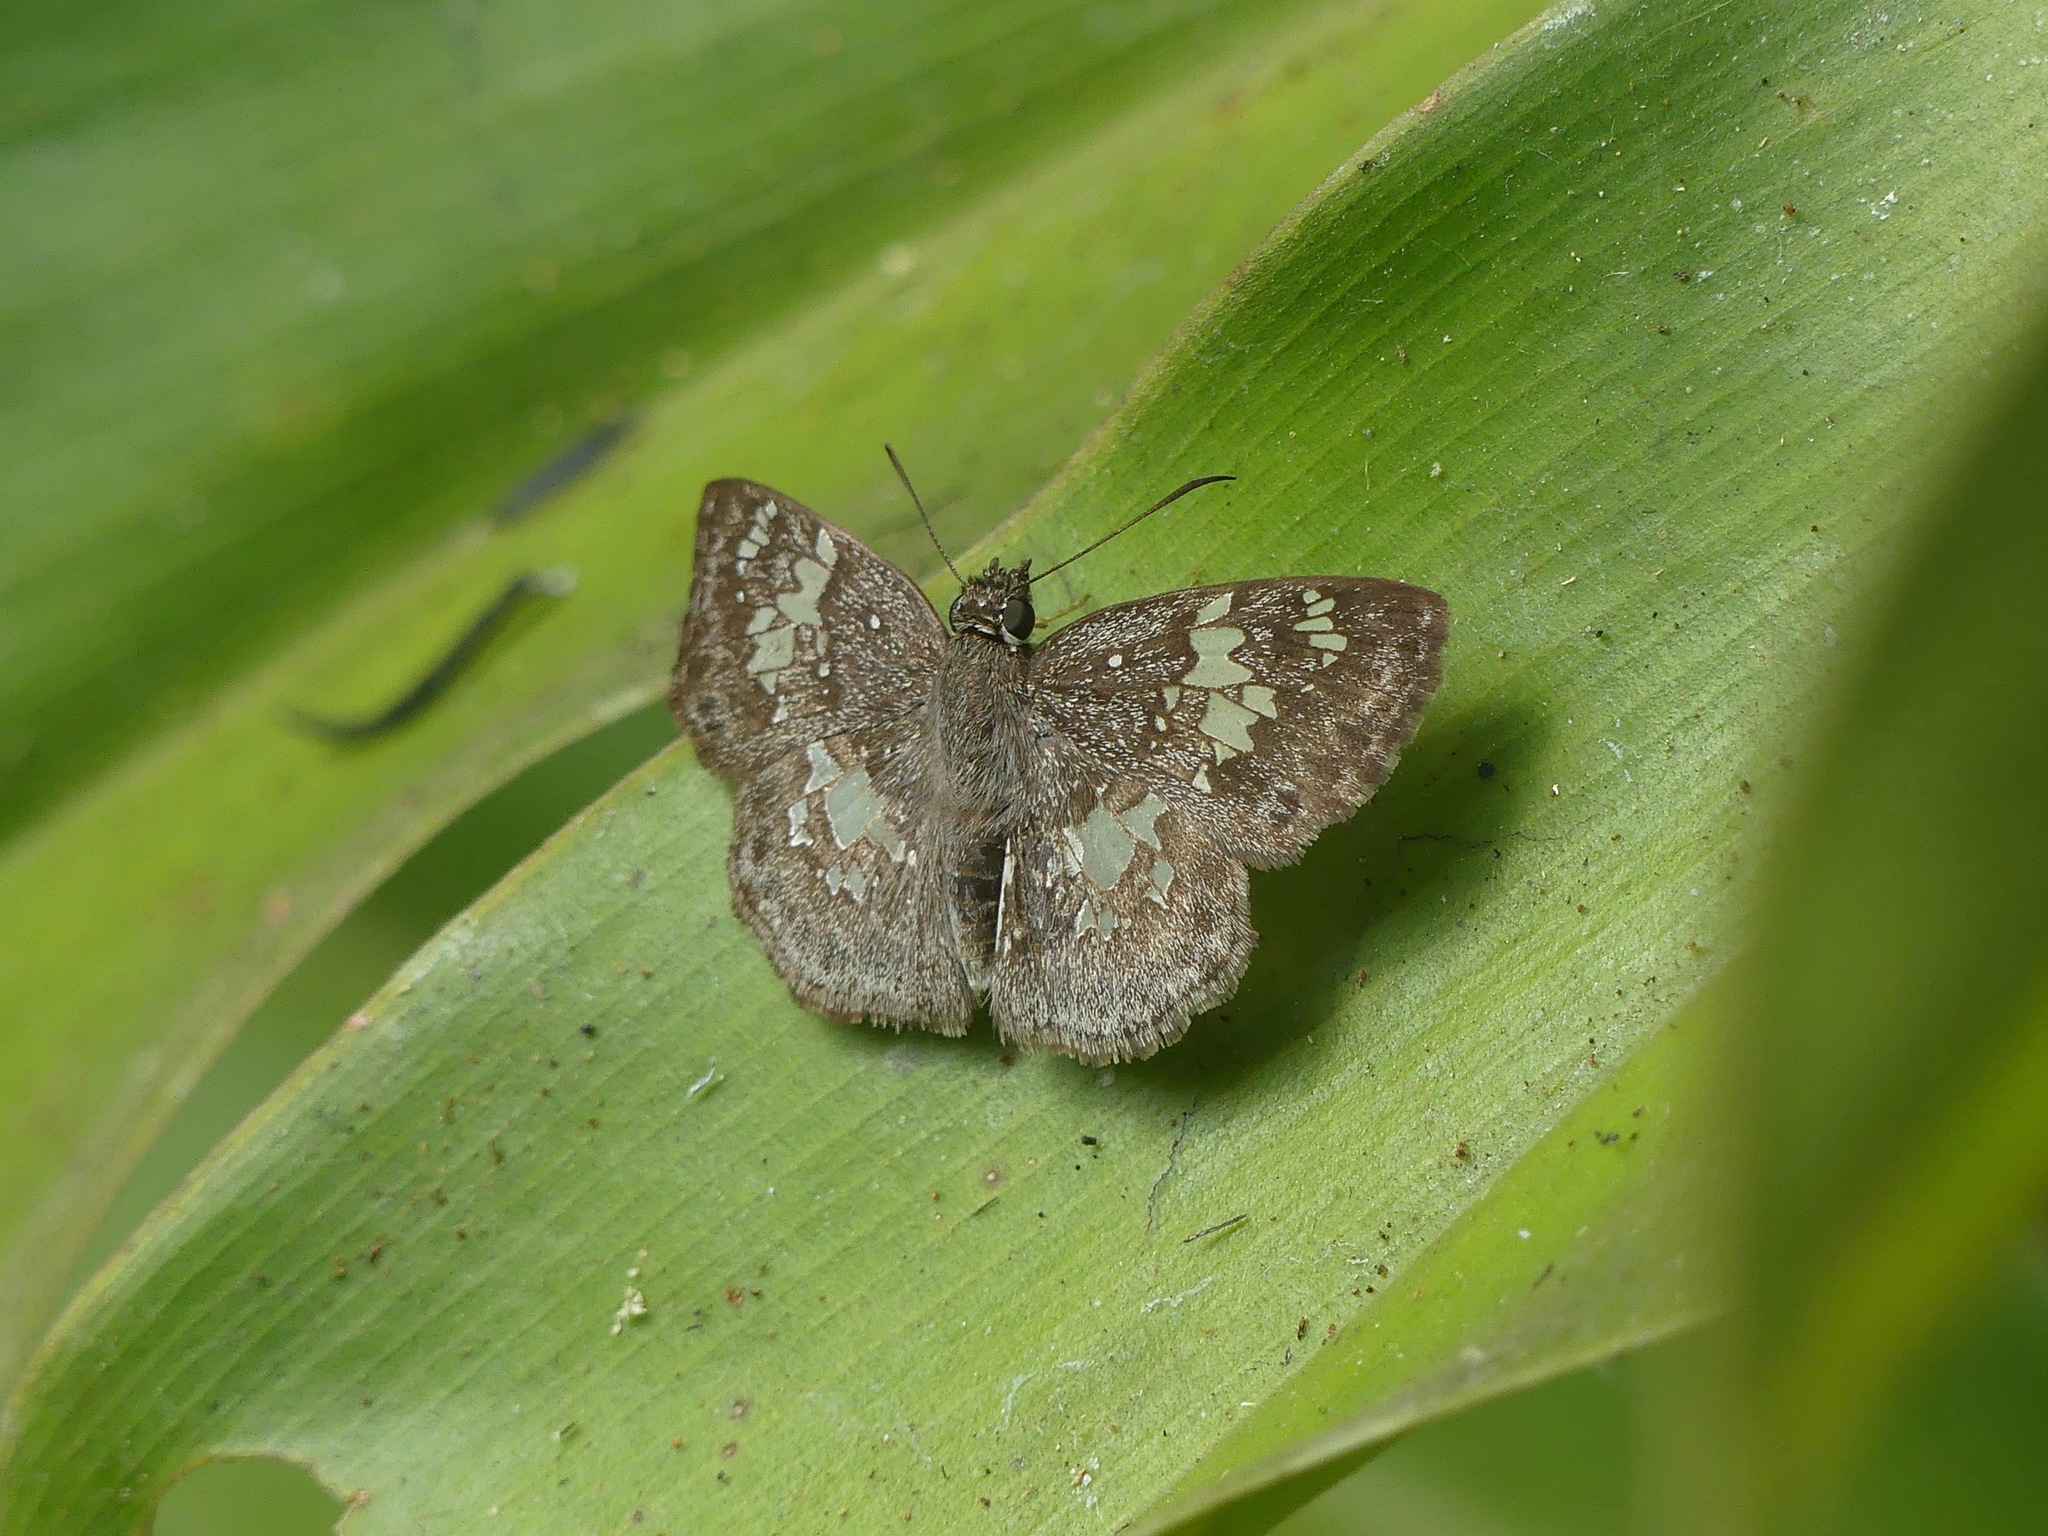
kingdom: Animalia
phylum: Arthropoda
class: Insecta
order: Lepidoptera
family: Hesperiidae
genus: Xenophanes
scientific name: Xenophanes tryxus
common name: Glassy-winged skipper
